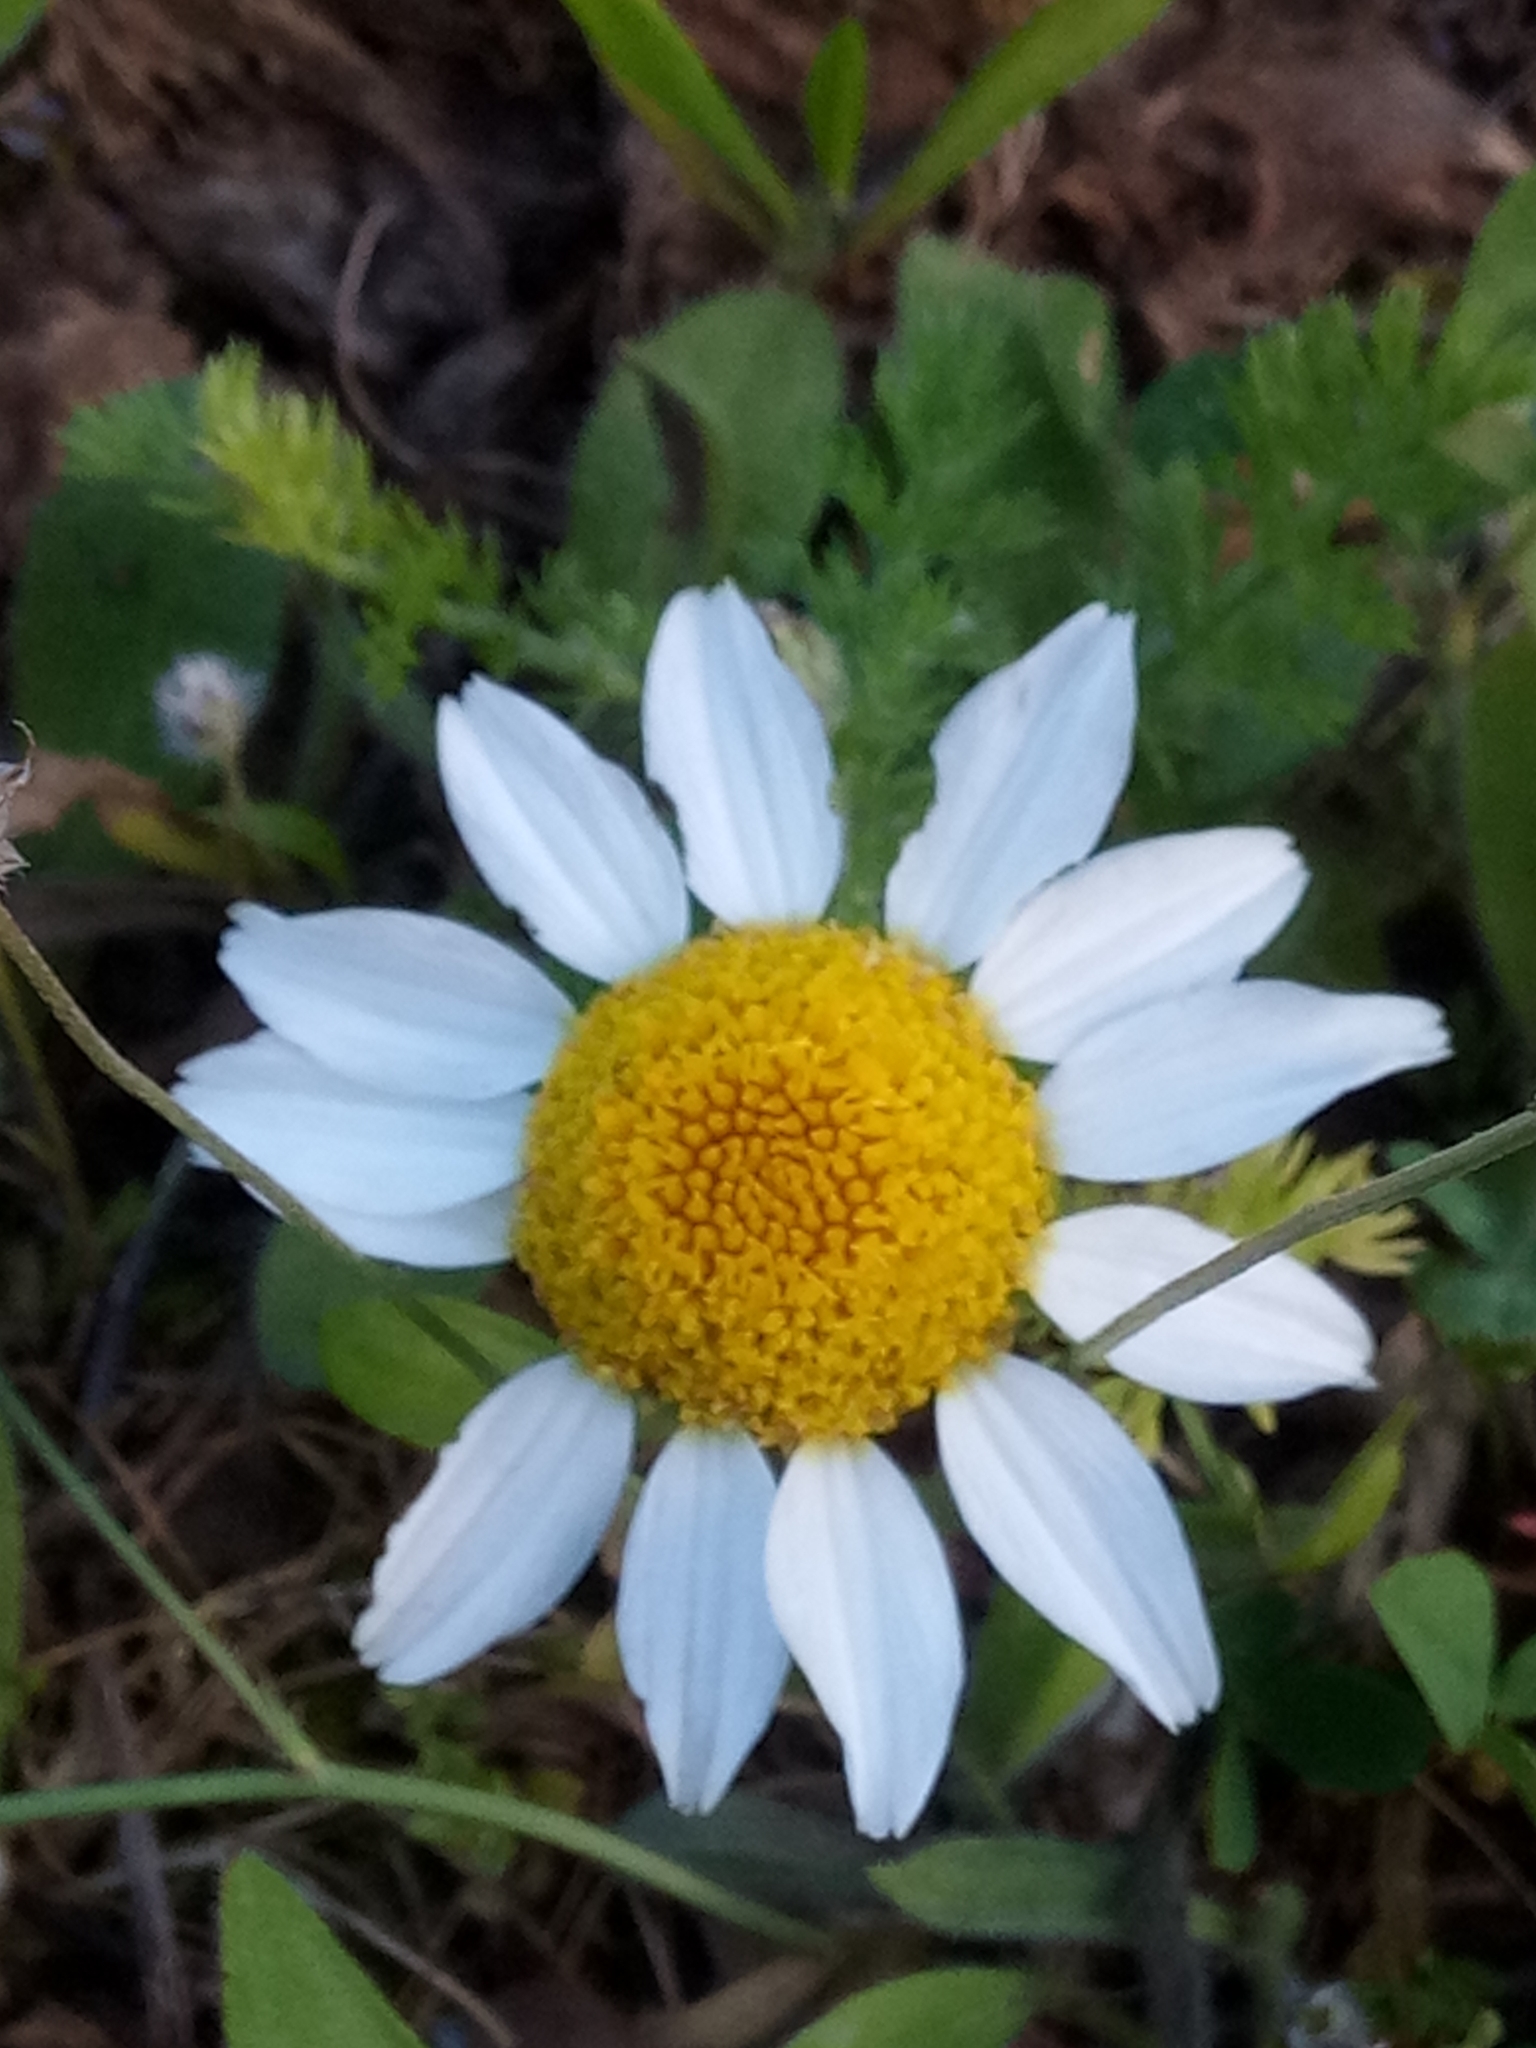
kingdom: Plantae
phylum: Tracheophyta
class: Magnoliopsida
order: Asterales
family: Asteraceae
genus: Anacyclus
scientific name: Anacyclus clavatus
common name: Whitebuttons
